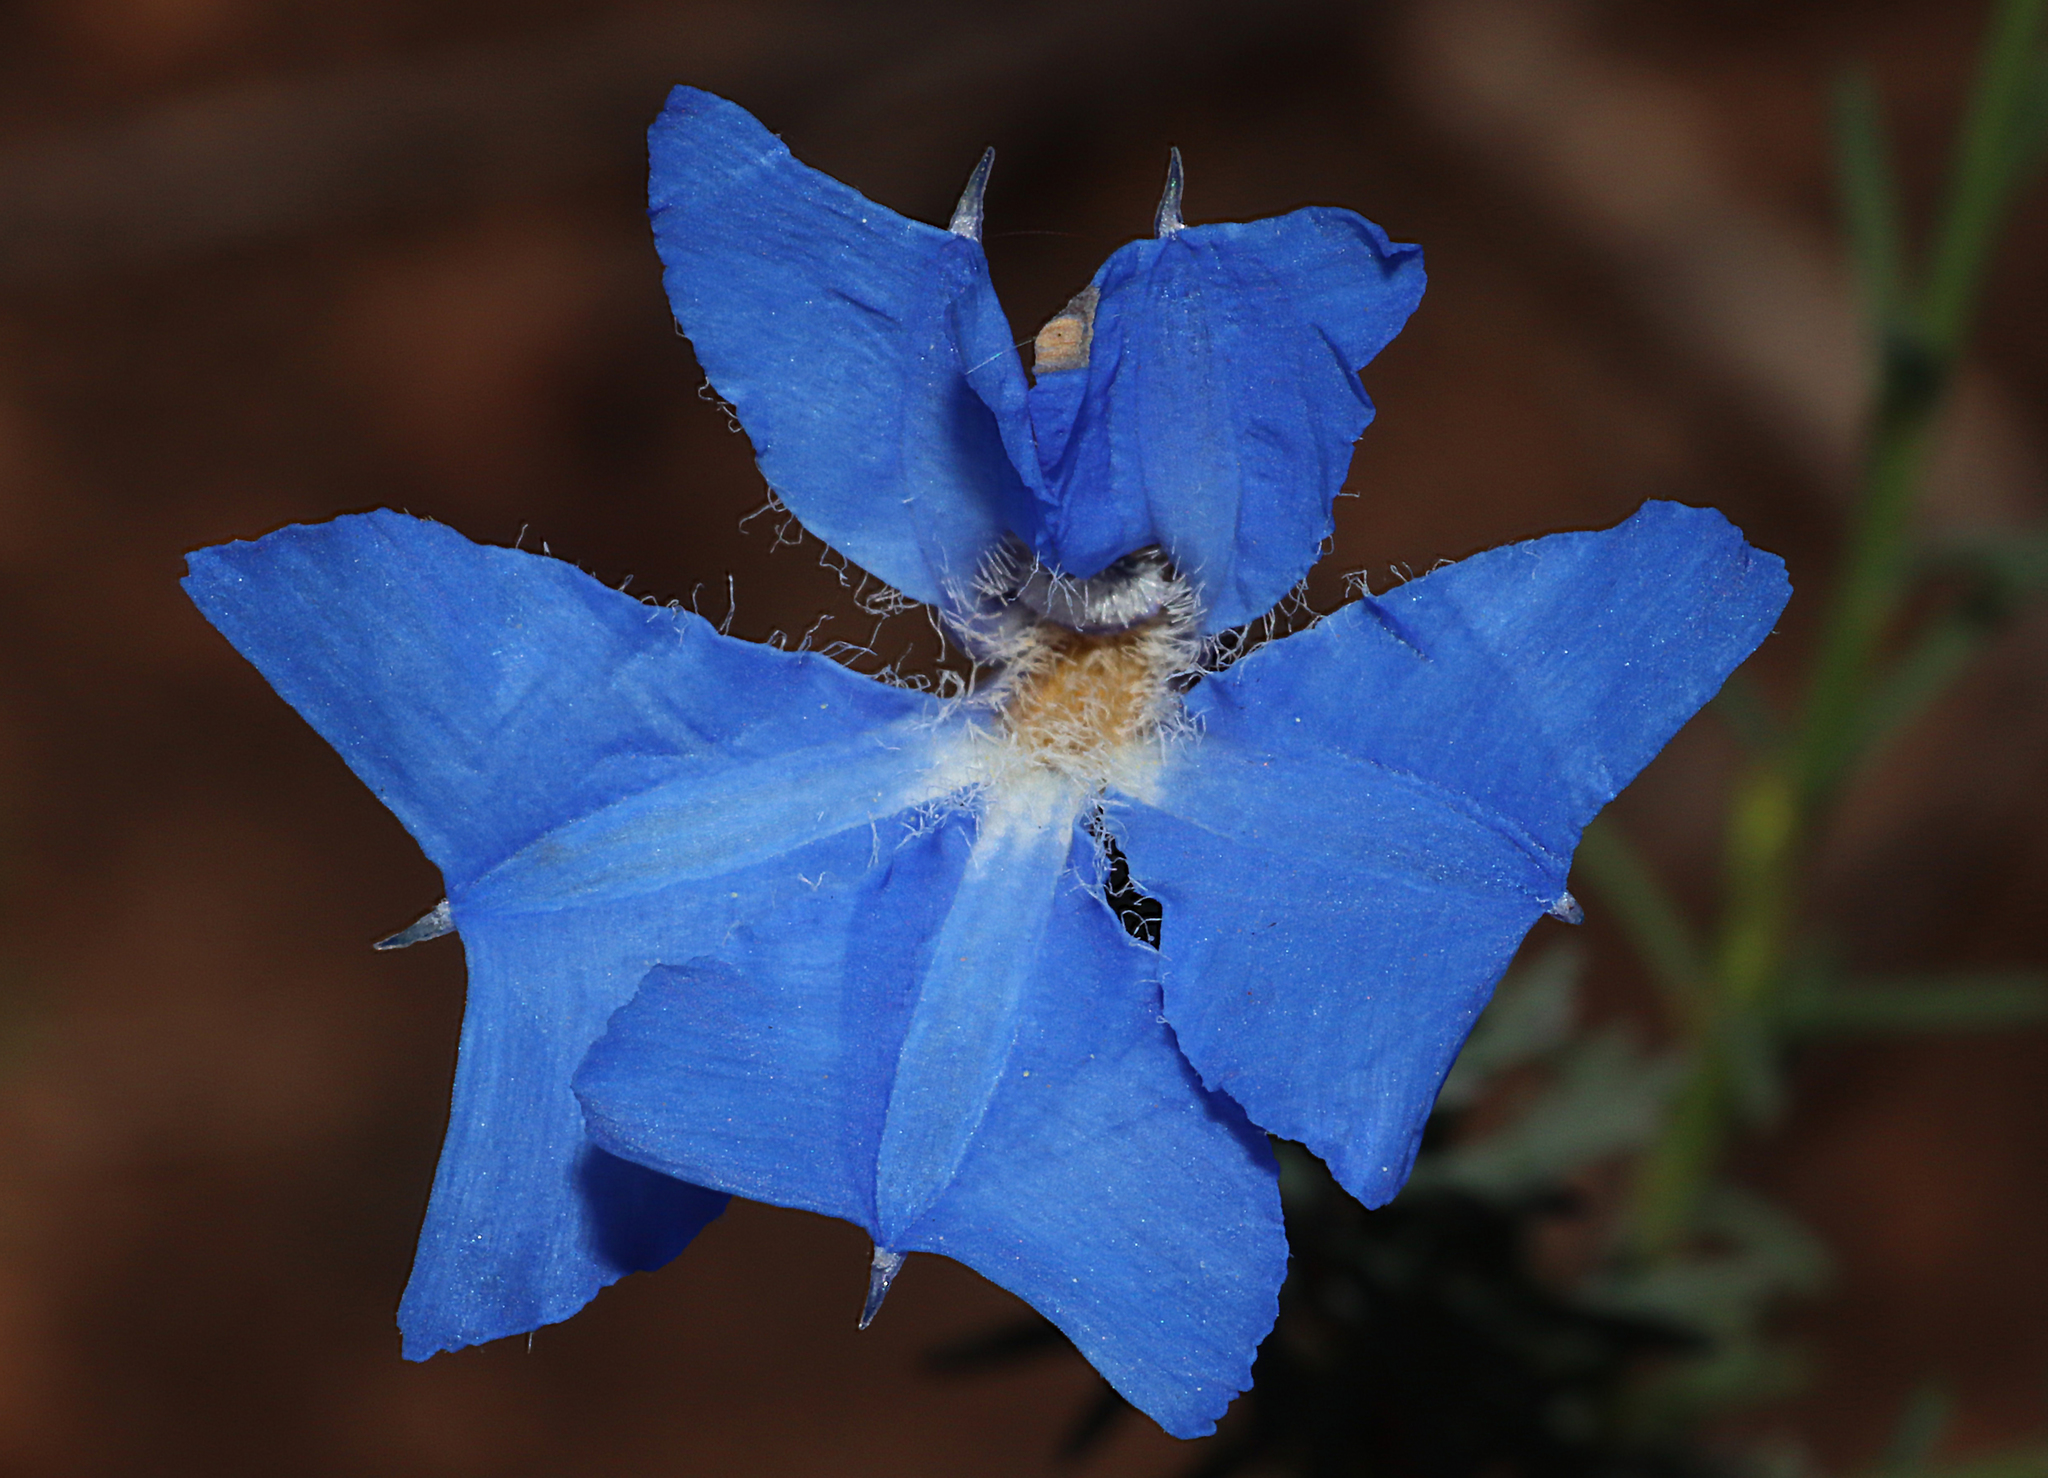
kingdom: Plantae
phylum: Tracheophyta
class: Magnoliopsida
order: Asterales
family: Goodeniaceae
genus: Lechenaultia
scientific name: Lechenaultia biloba
